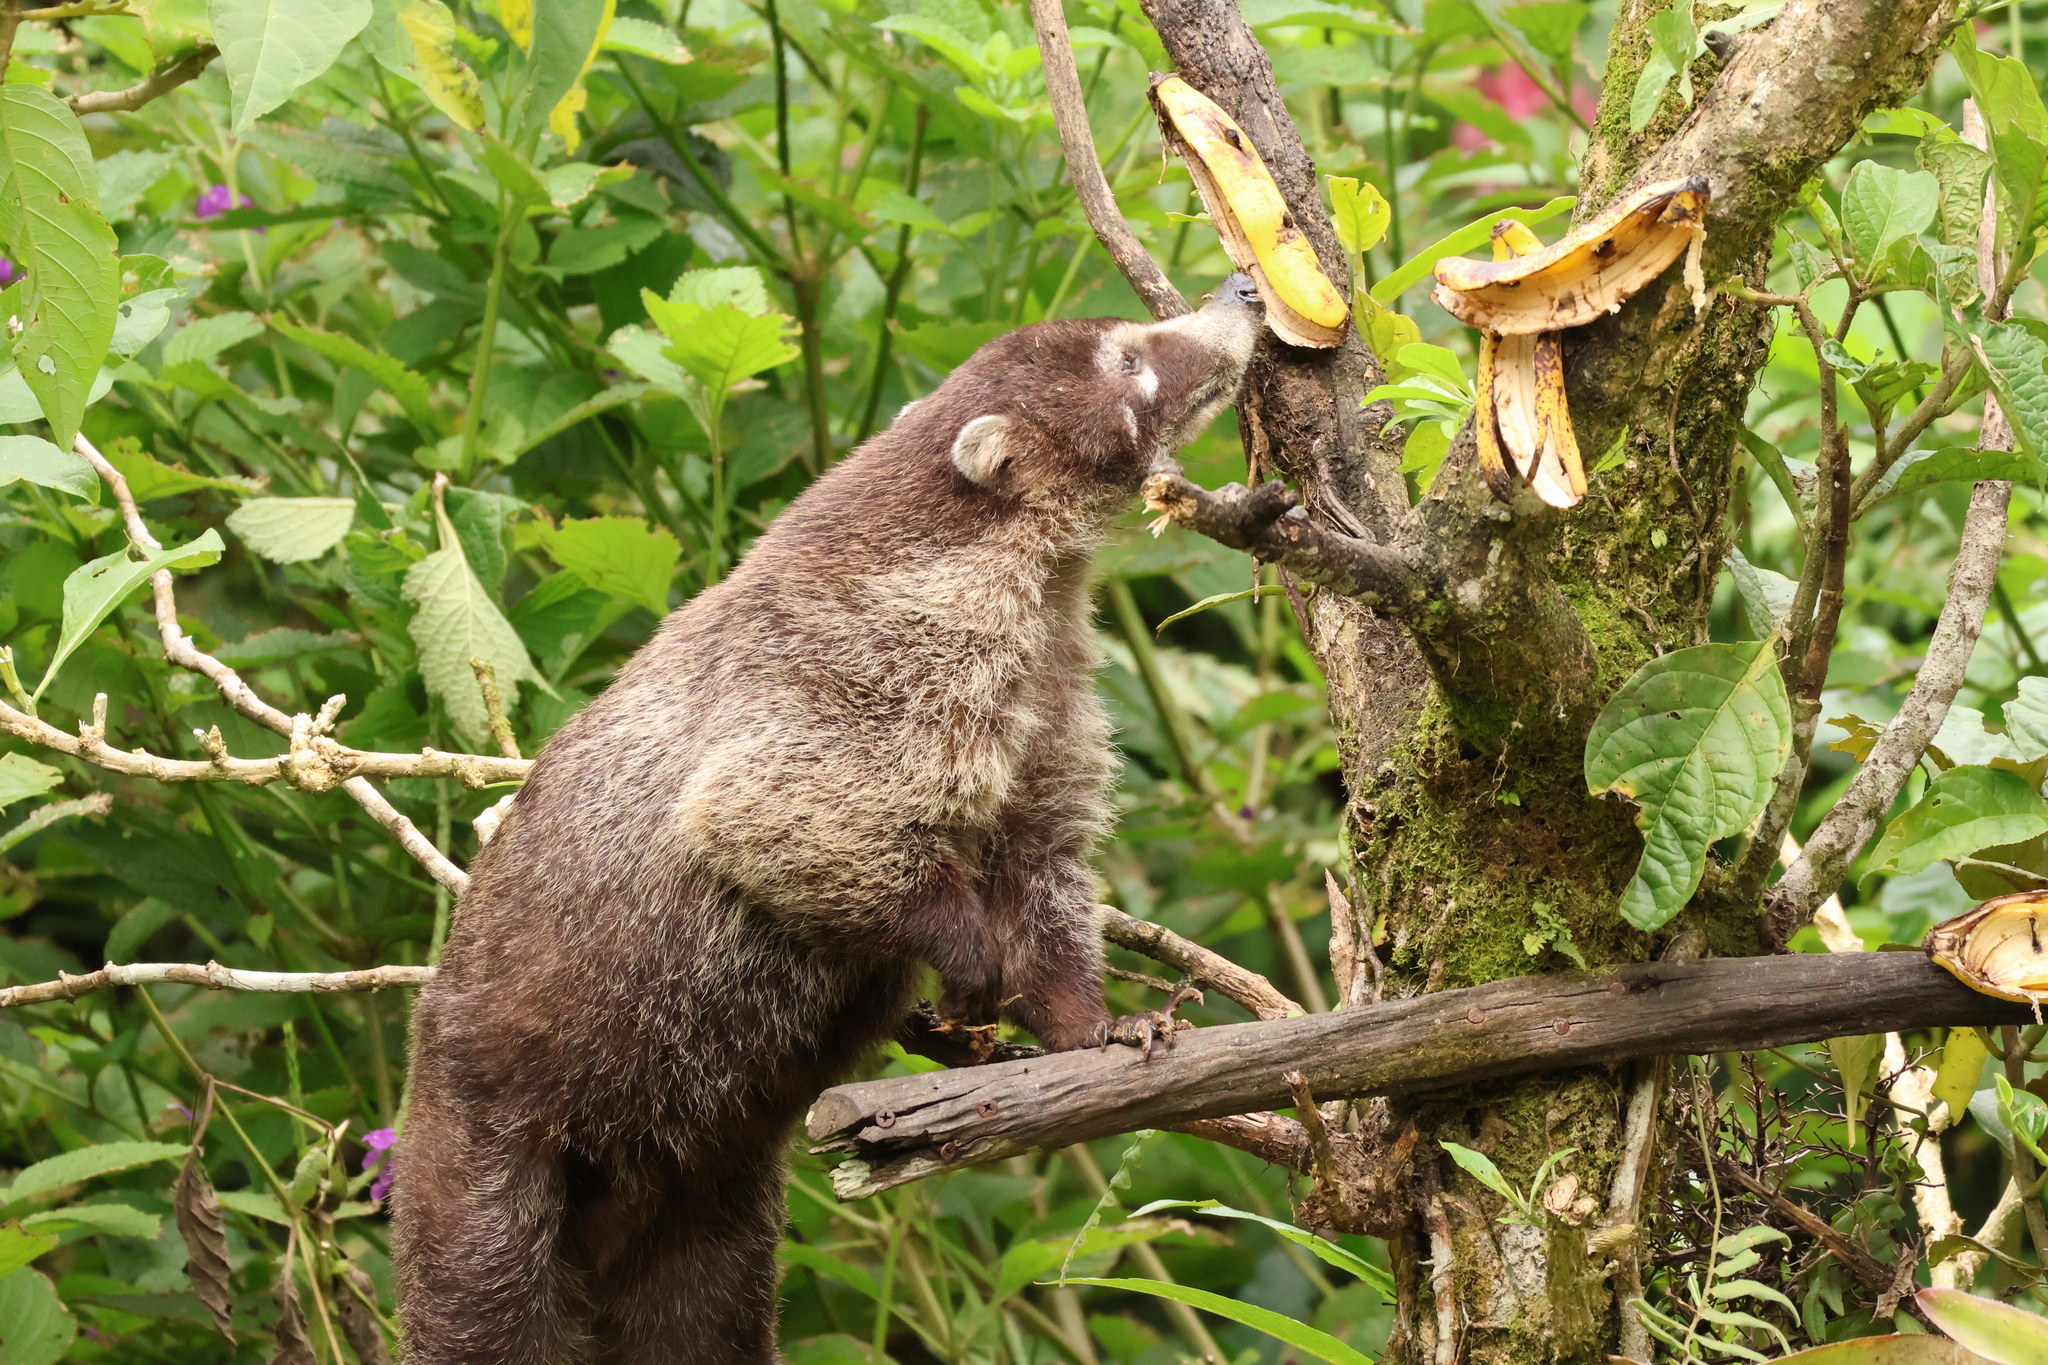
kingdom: Animalia
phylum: Chordata
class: Mammalia
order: Carnivora
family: Procyonidae
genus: Nasua
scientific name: Nasua narica
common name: White-nosed coati
